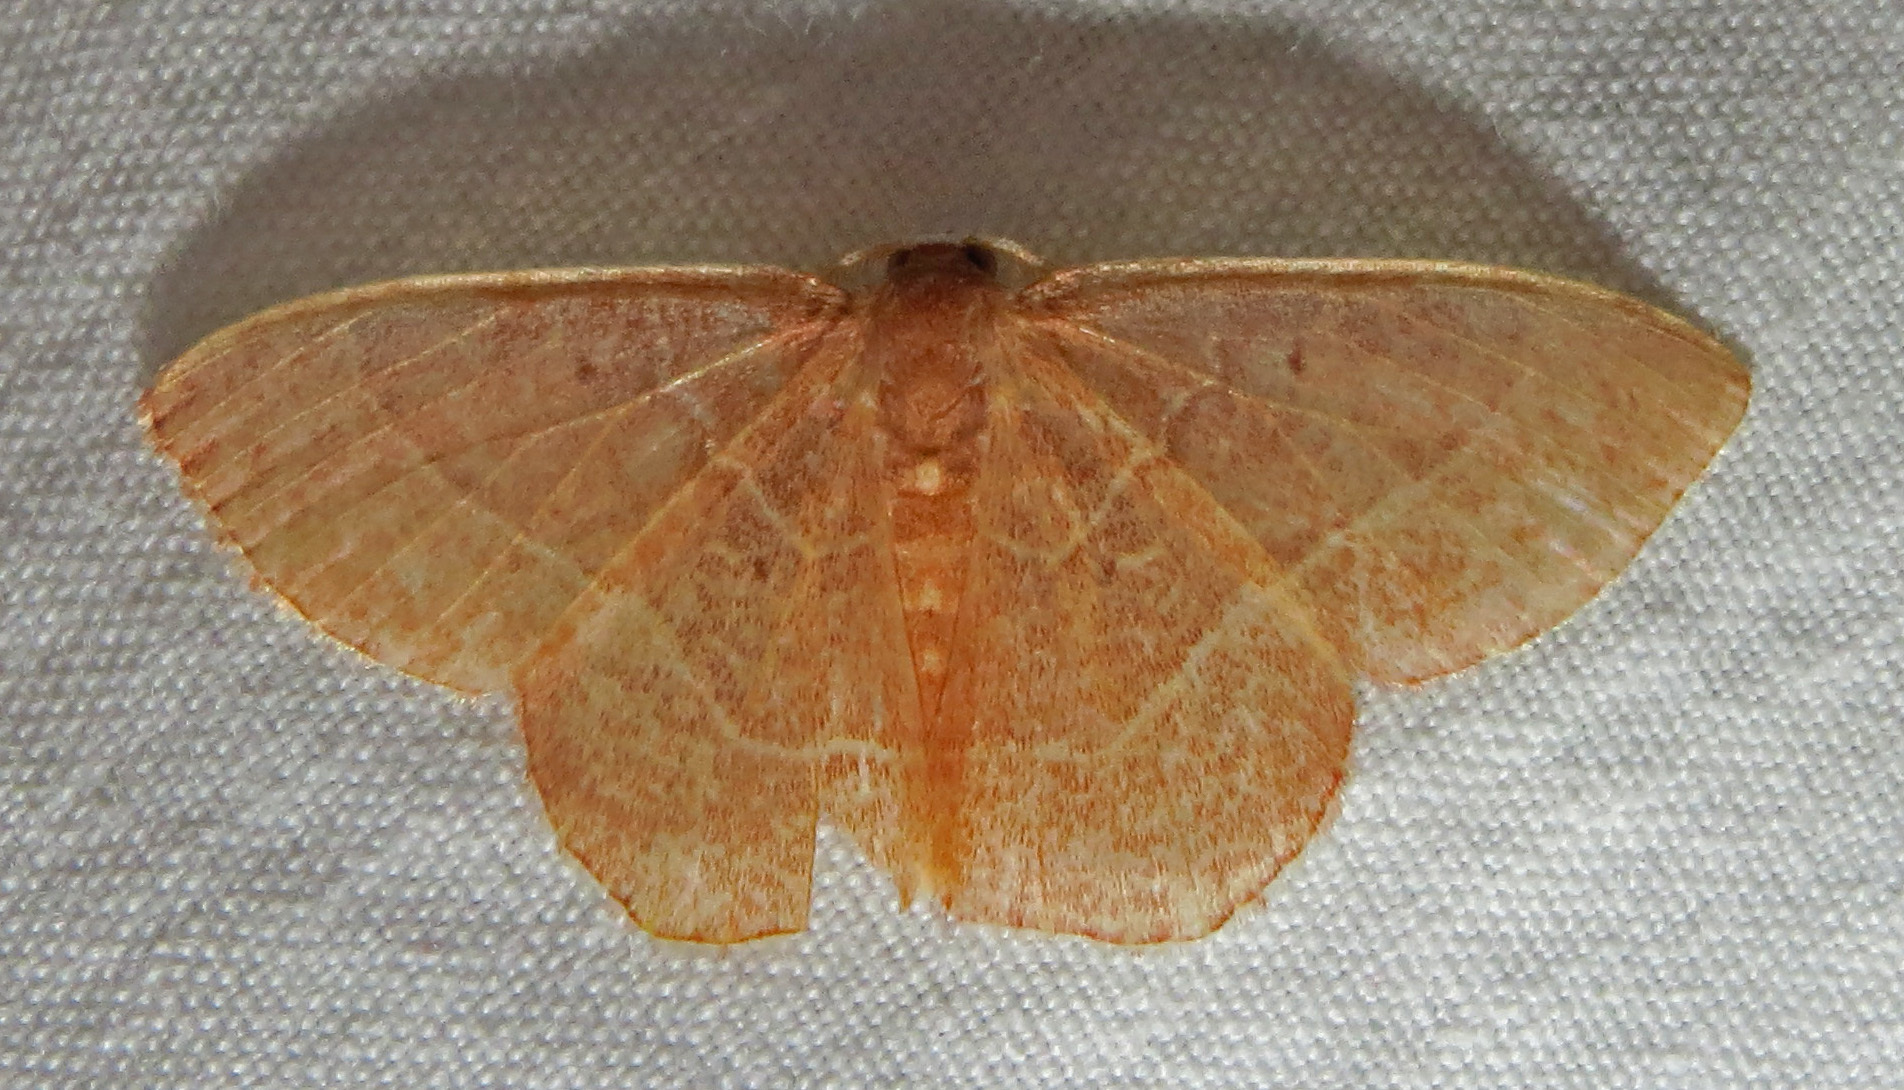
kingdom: Animalia
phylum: Arthropoda
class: Insecta
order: Lepidoptera
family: Geometridae
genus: Nemoria
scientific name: Nemoria bistriaria
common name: Red-fringed emerald
